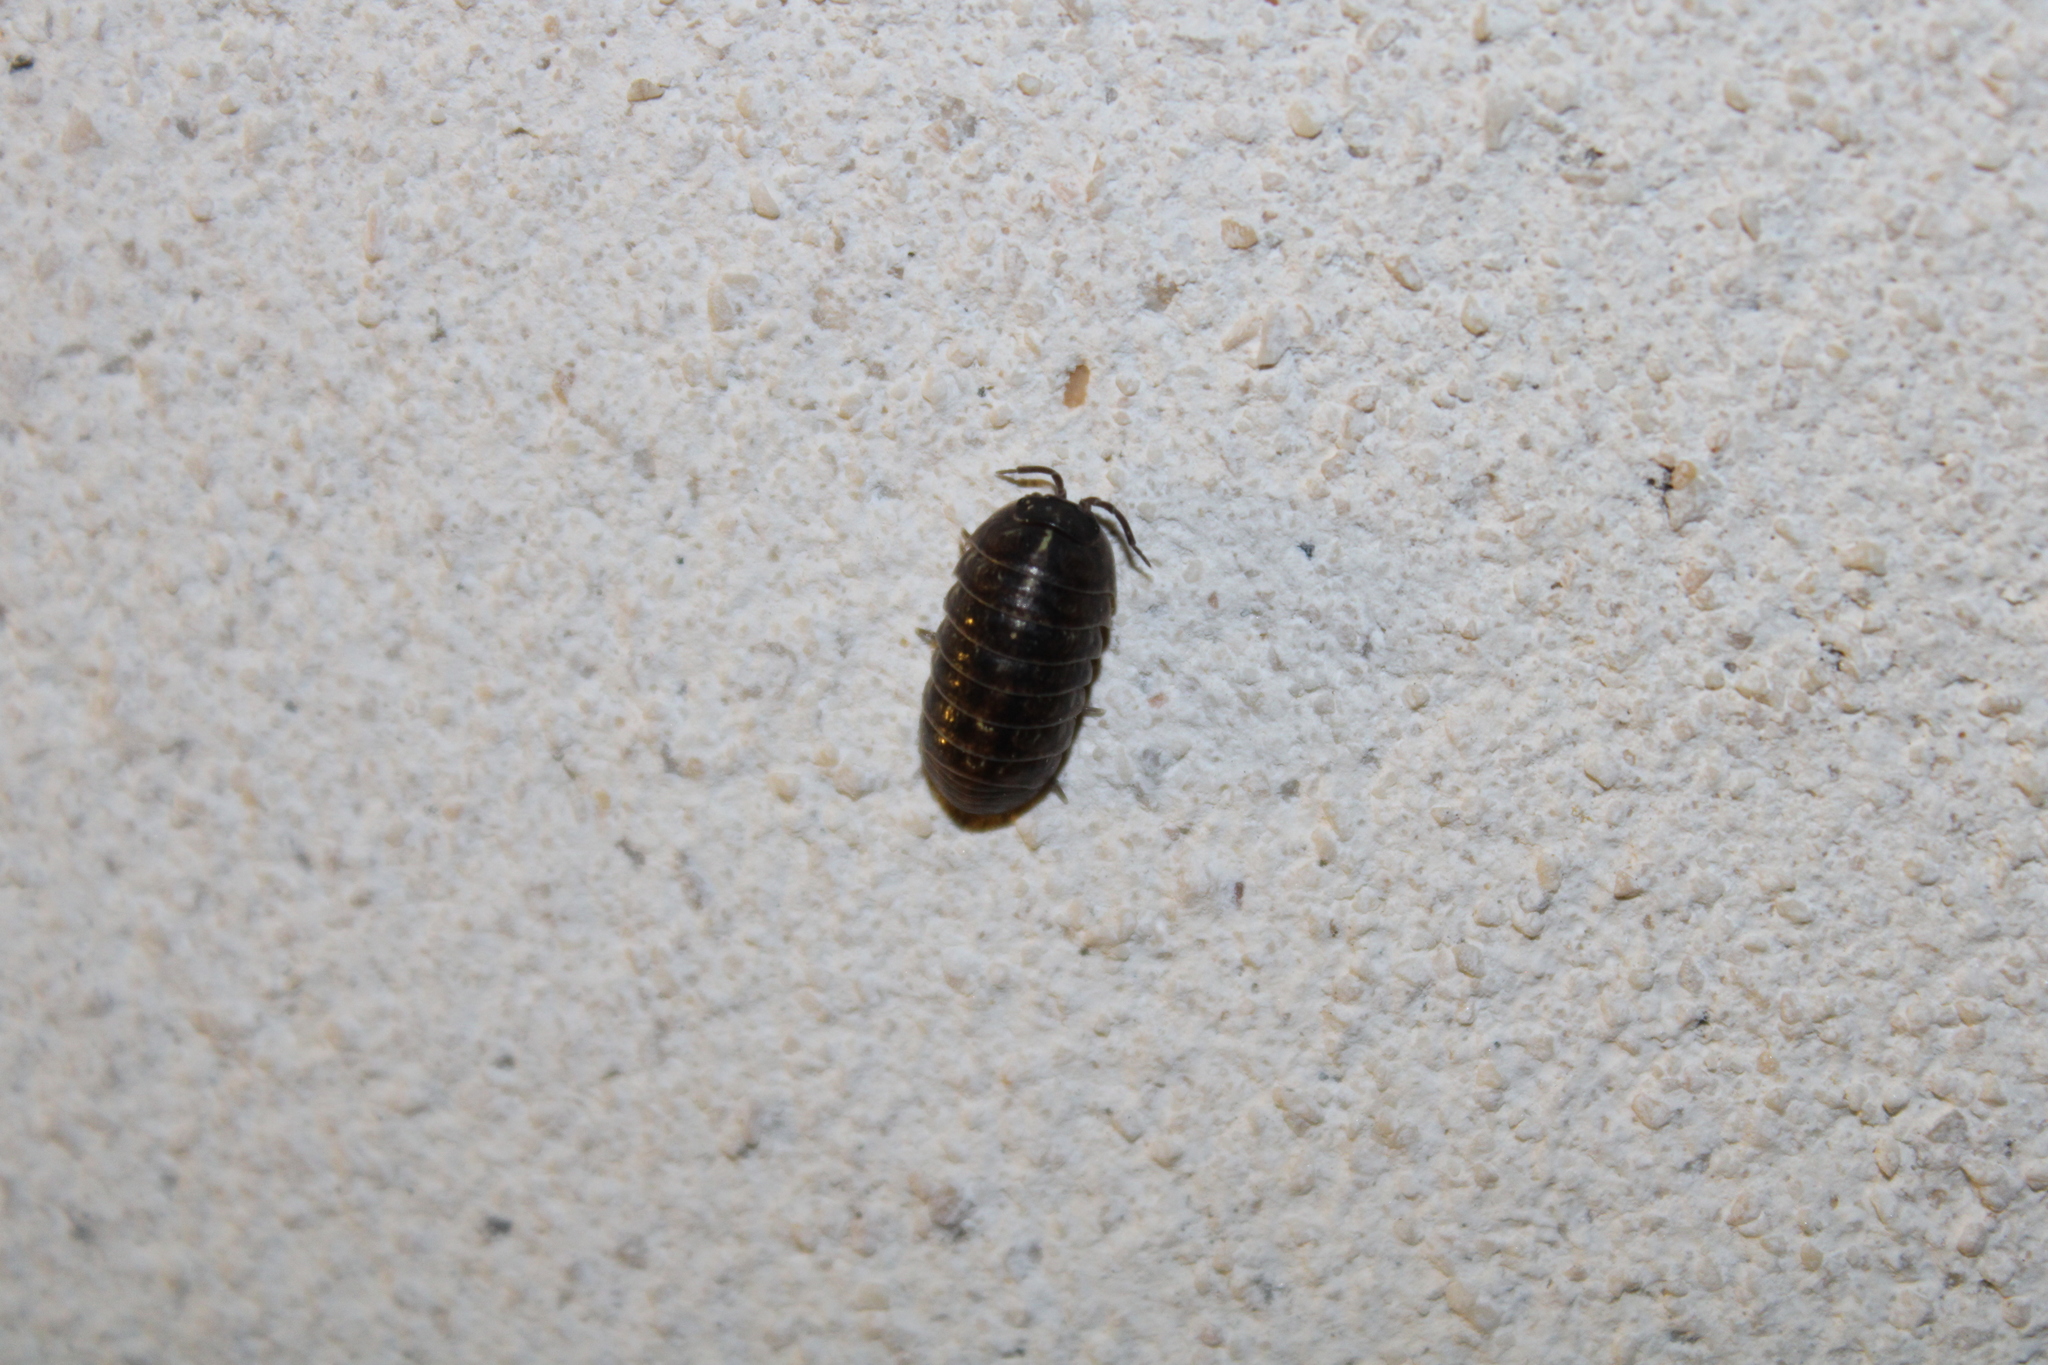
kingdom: Animalia
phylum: Arthropoda
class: Malacostraca
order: Isopoda
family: Armadillidiidae
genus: Armadillidium
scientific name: Armadillidium vulgare
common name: Common pill woodlouse
